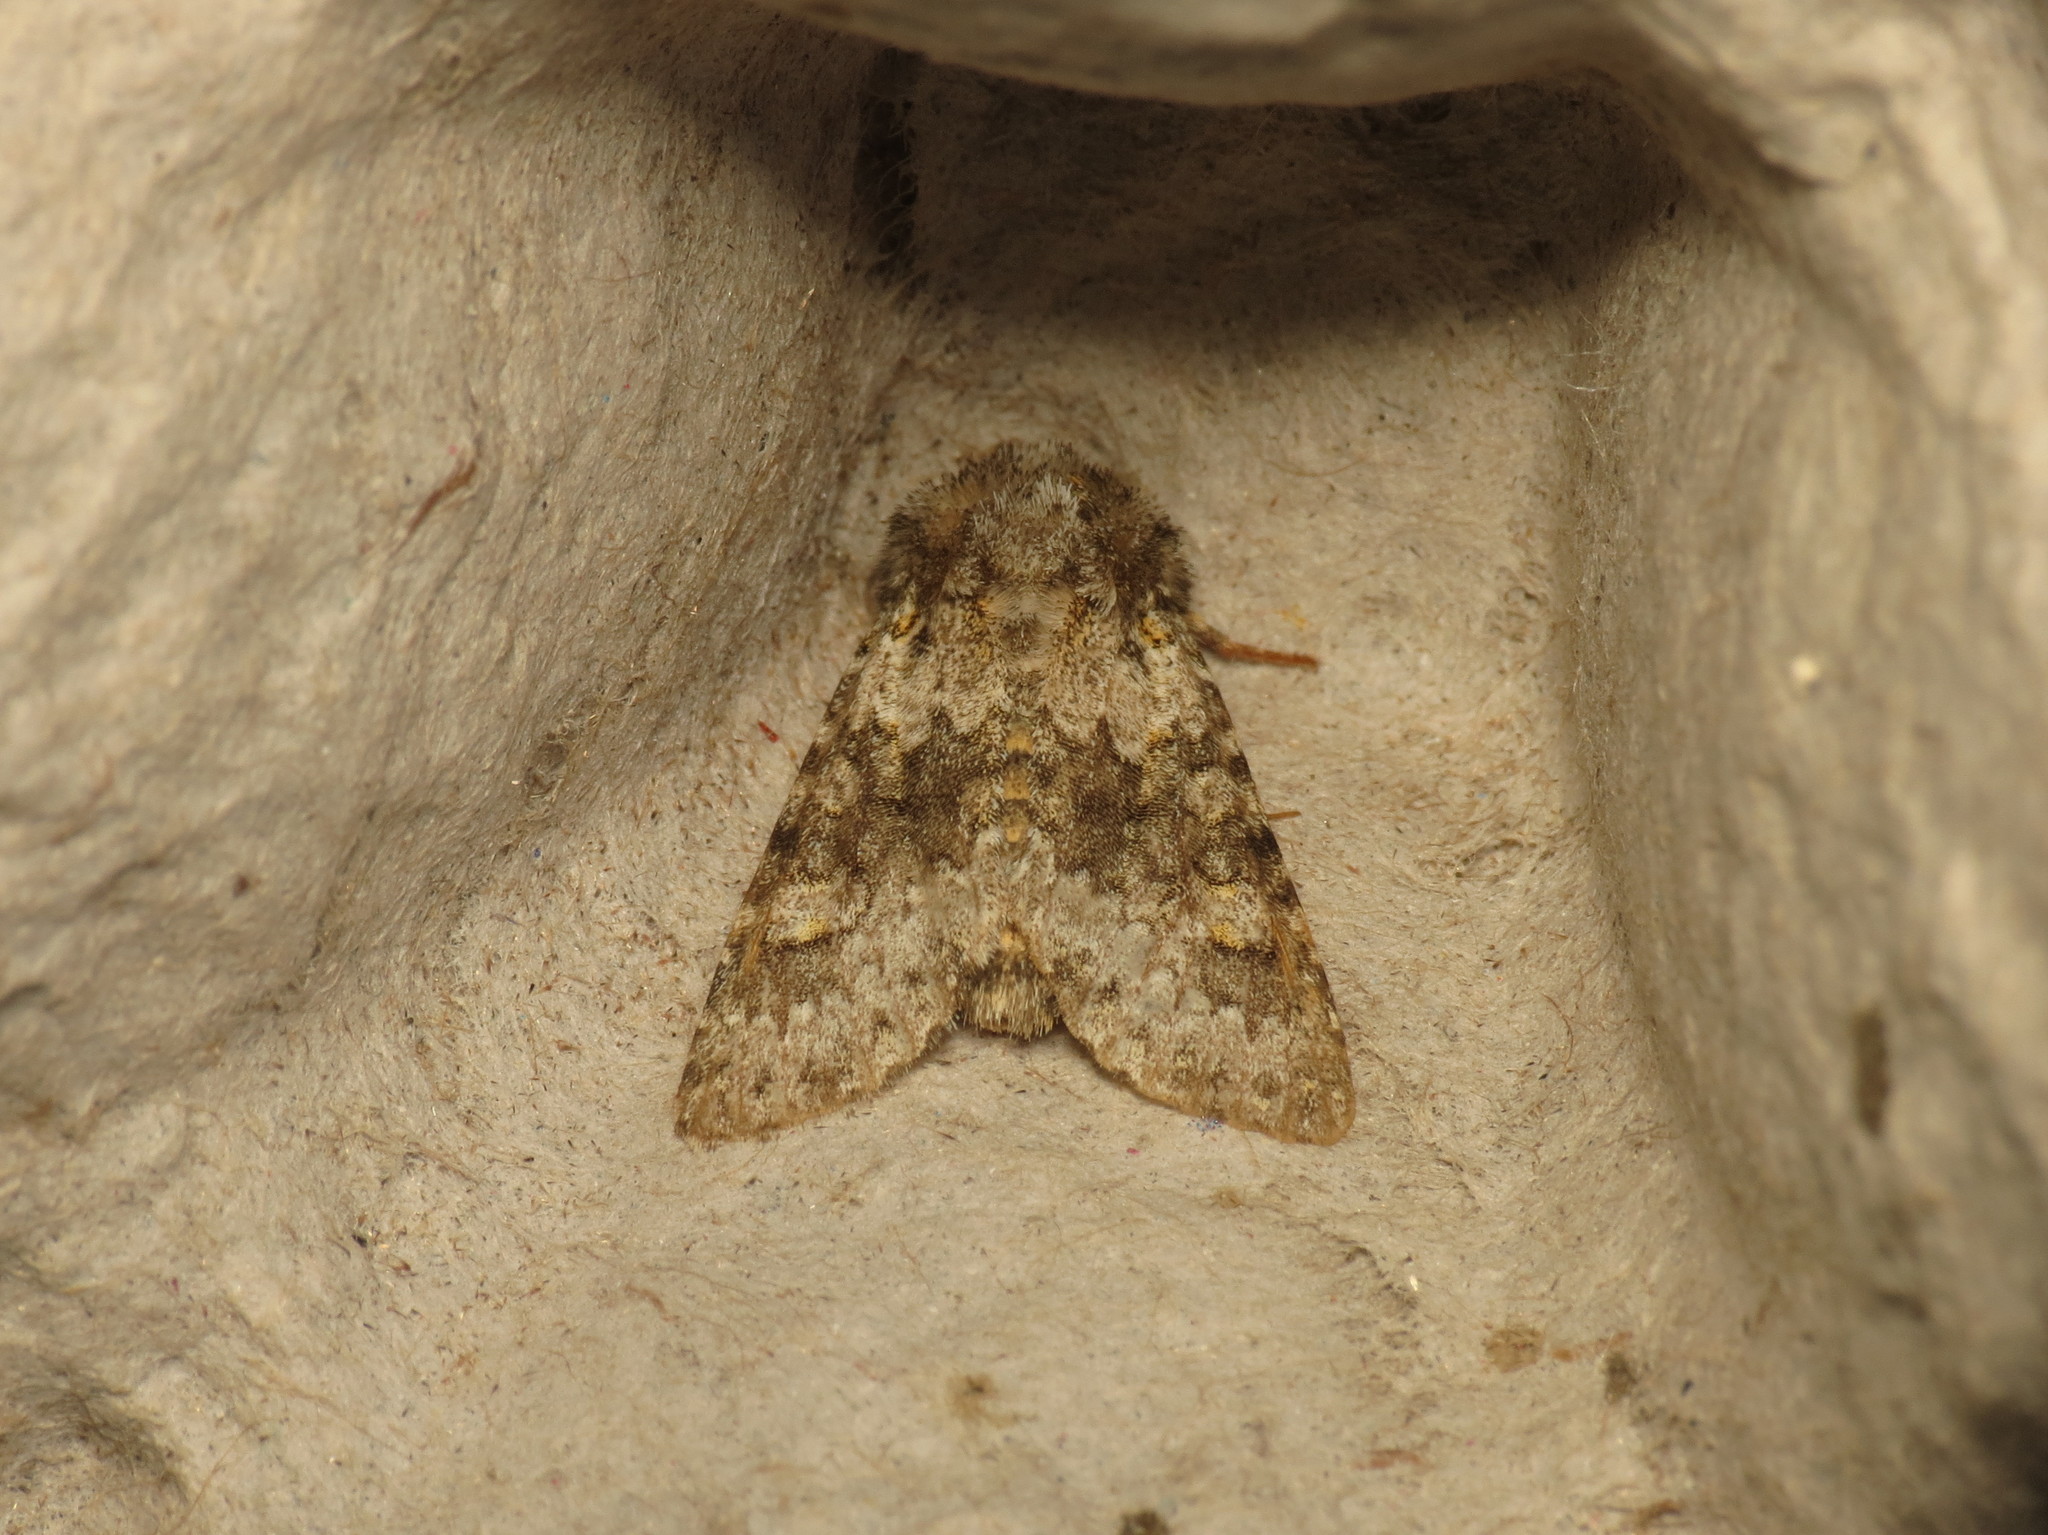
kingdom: Animalia
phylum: Arthropoda
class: Insecta
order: Lepidoptera
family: Noctuidae
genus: Hecatera
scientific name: Hecatera dysodea
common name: Small ranunculus
